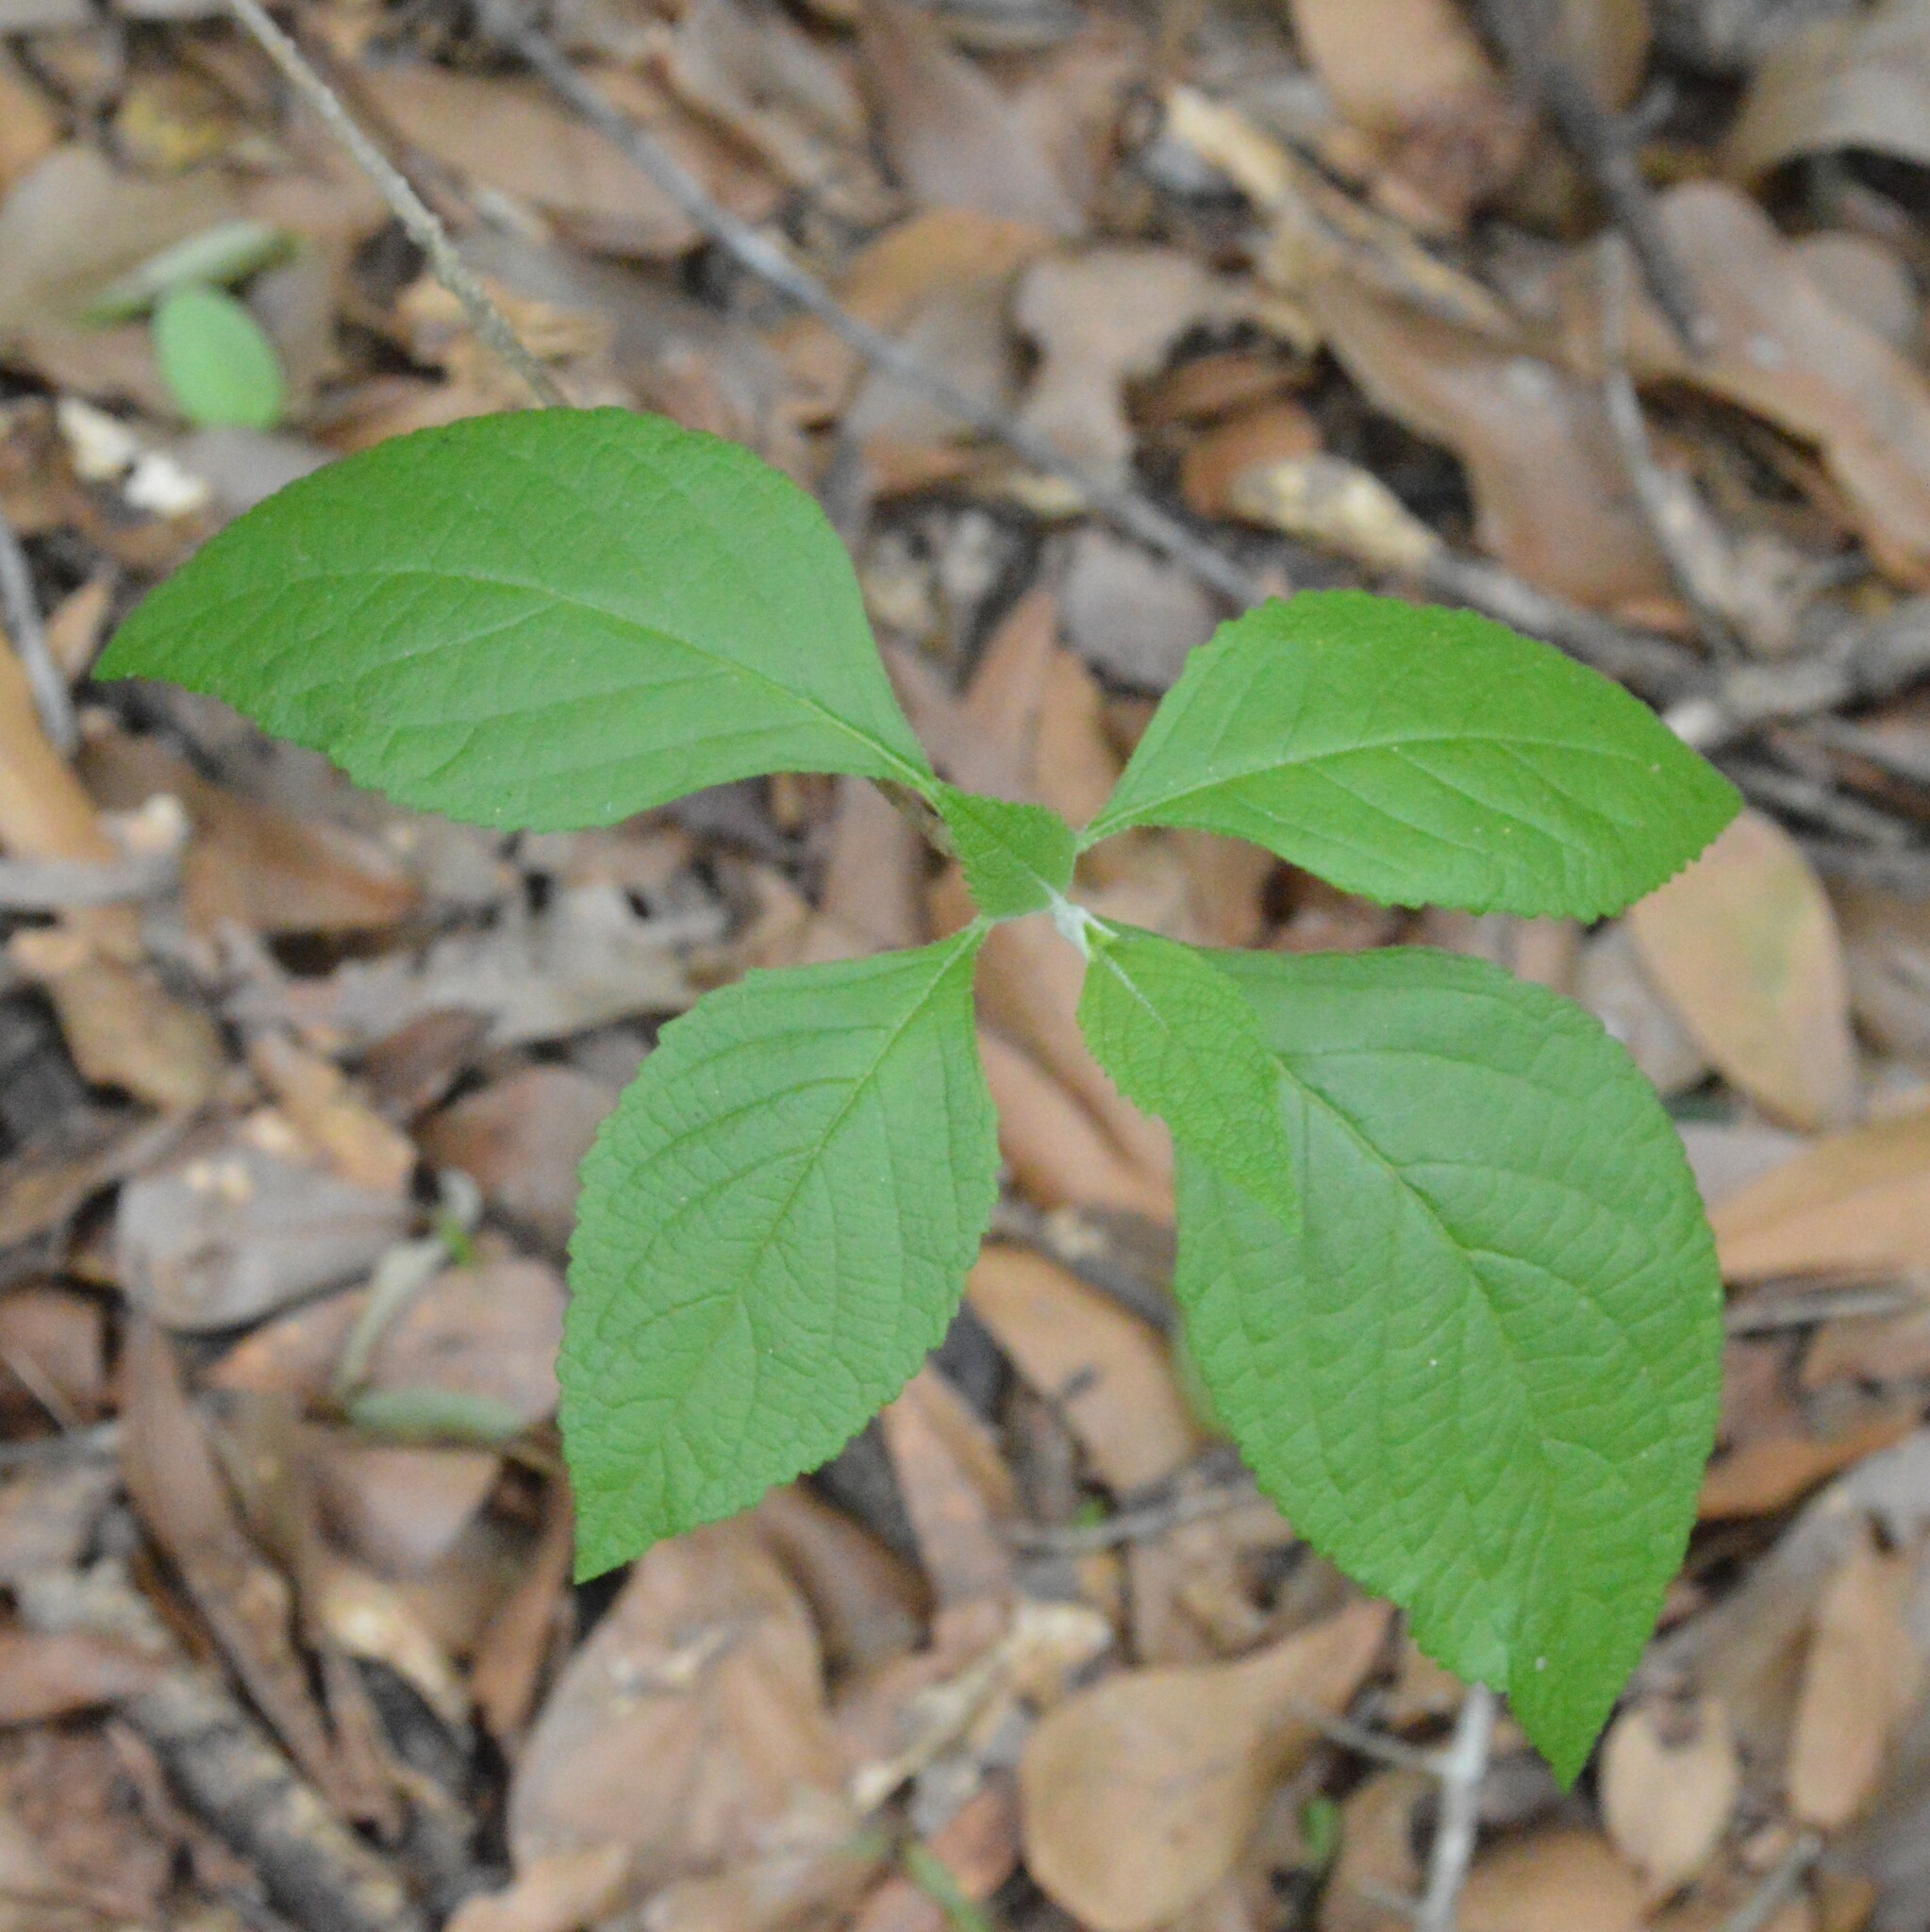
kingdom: Plantae
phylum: Tracheophyta
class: Magnoliopsida
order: Lamiales
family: Lamiaceae
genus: Callicarpa
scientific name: Callicarpa americana
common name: American beautyberry
